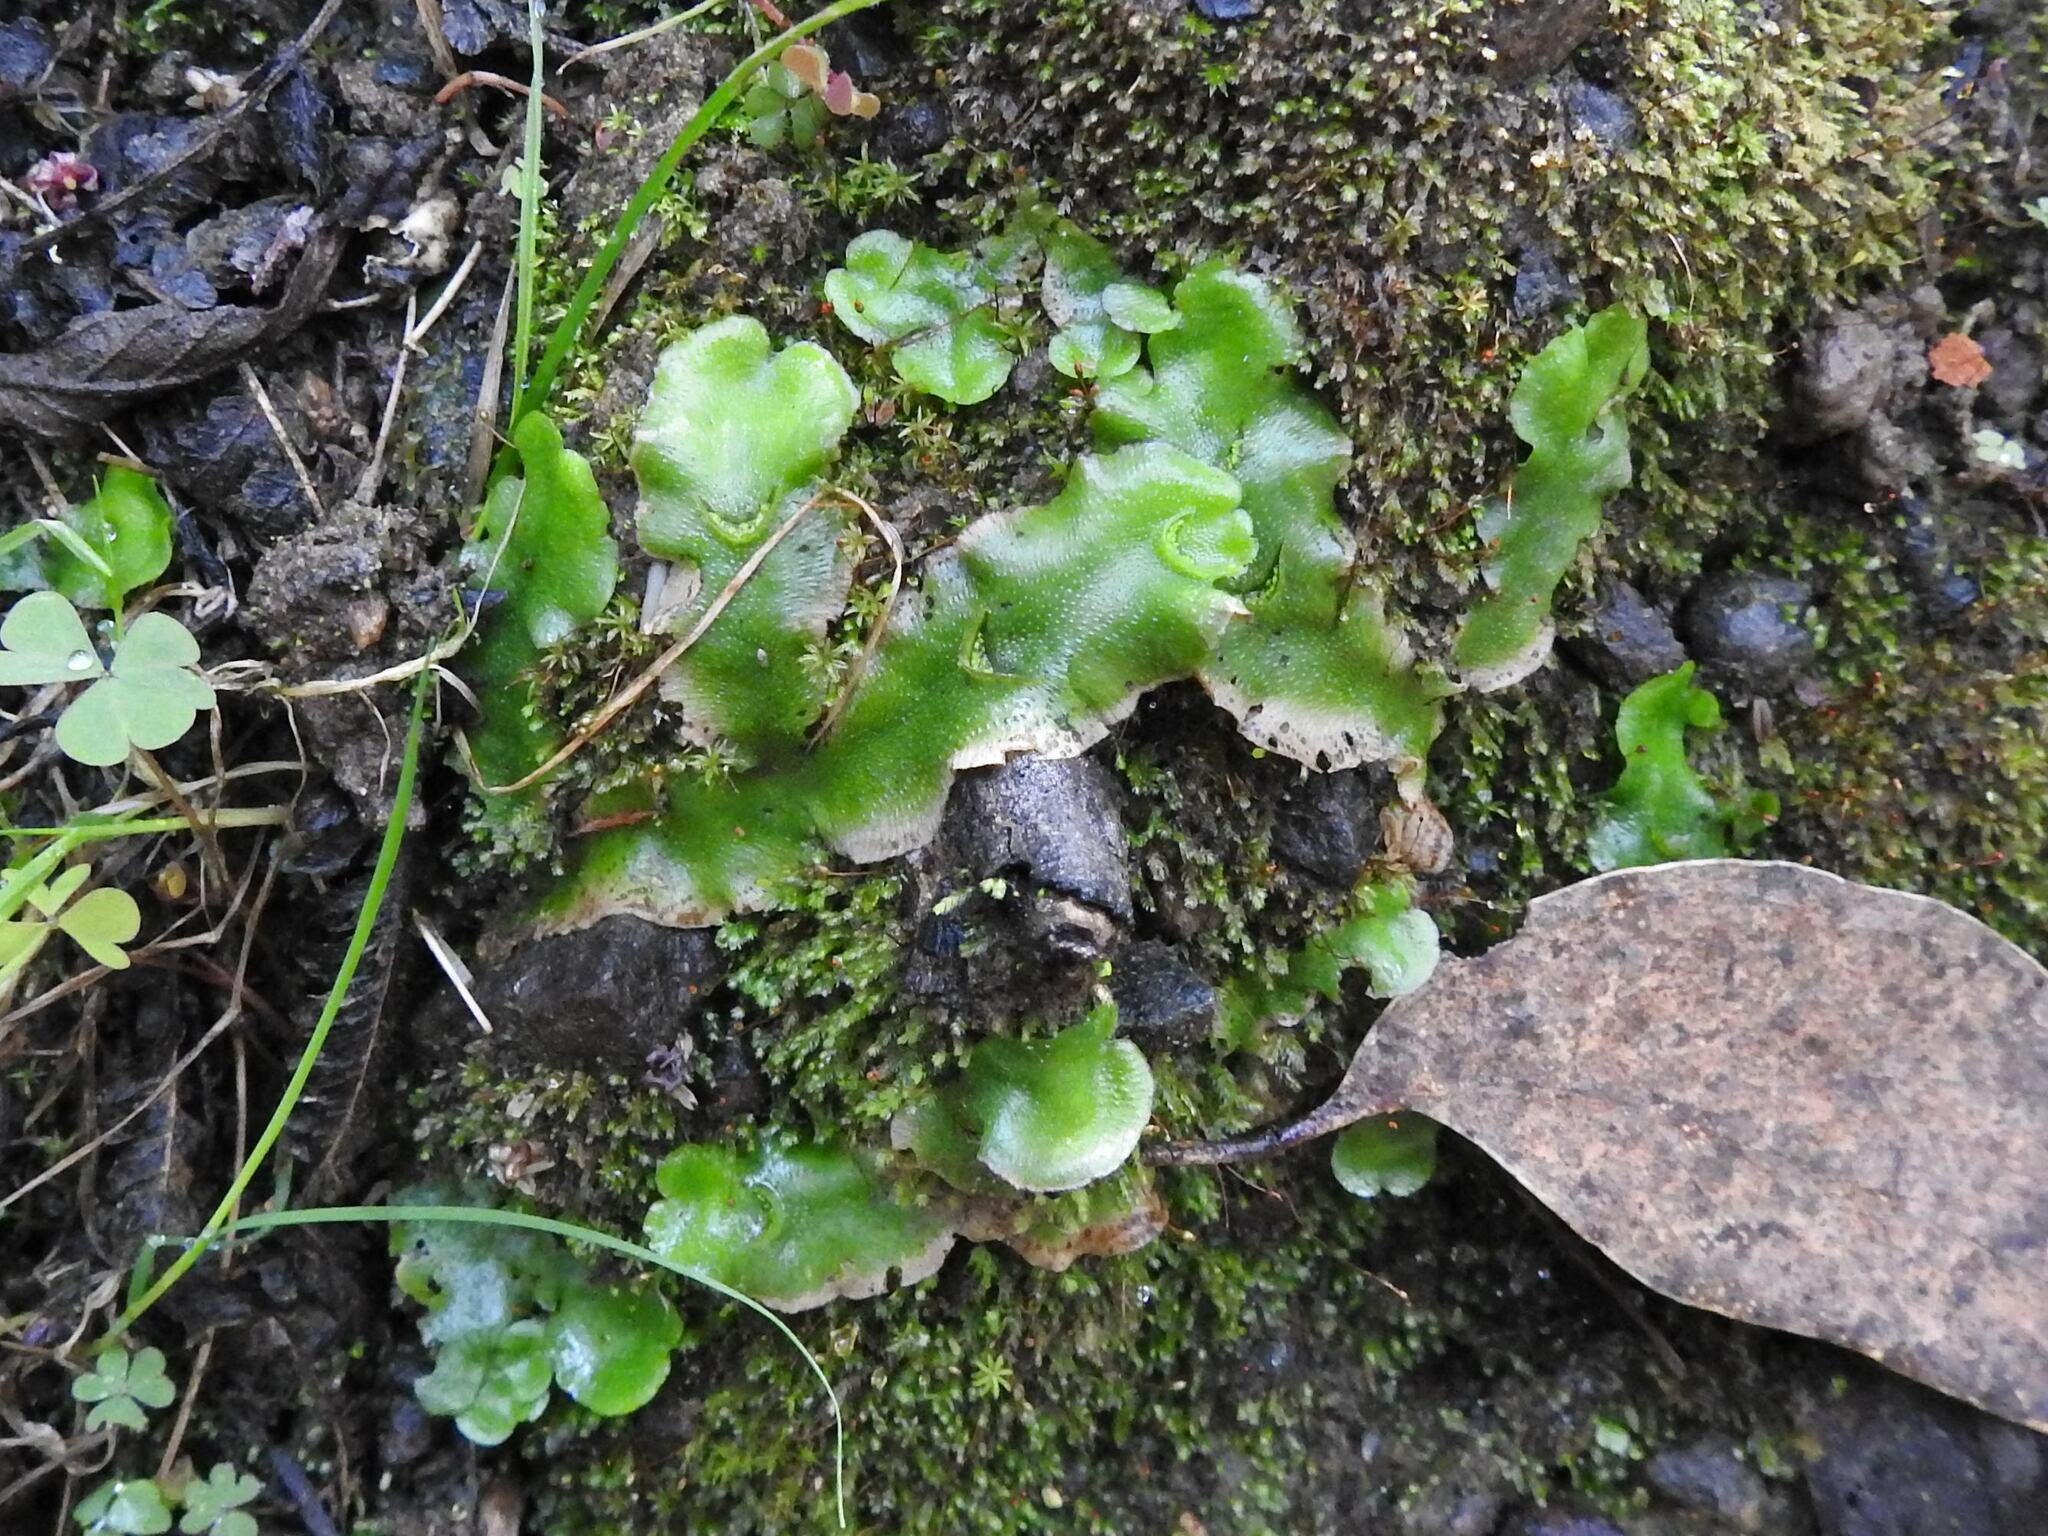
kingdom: Plantae
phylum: Marchantiophyta
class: Marchantiopsida
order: Lunulariales
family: Lunulariaceae
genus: Lunularia
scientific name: Lunularia cruciata
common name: Crescent-cup liverwort
